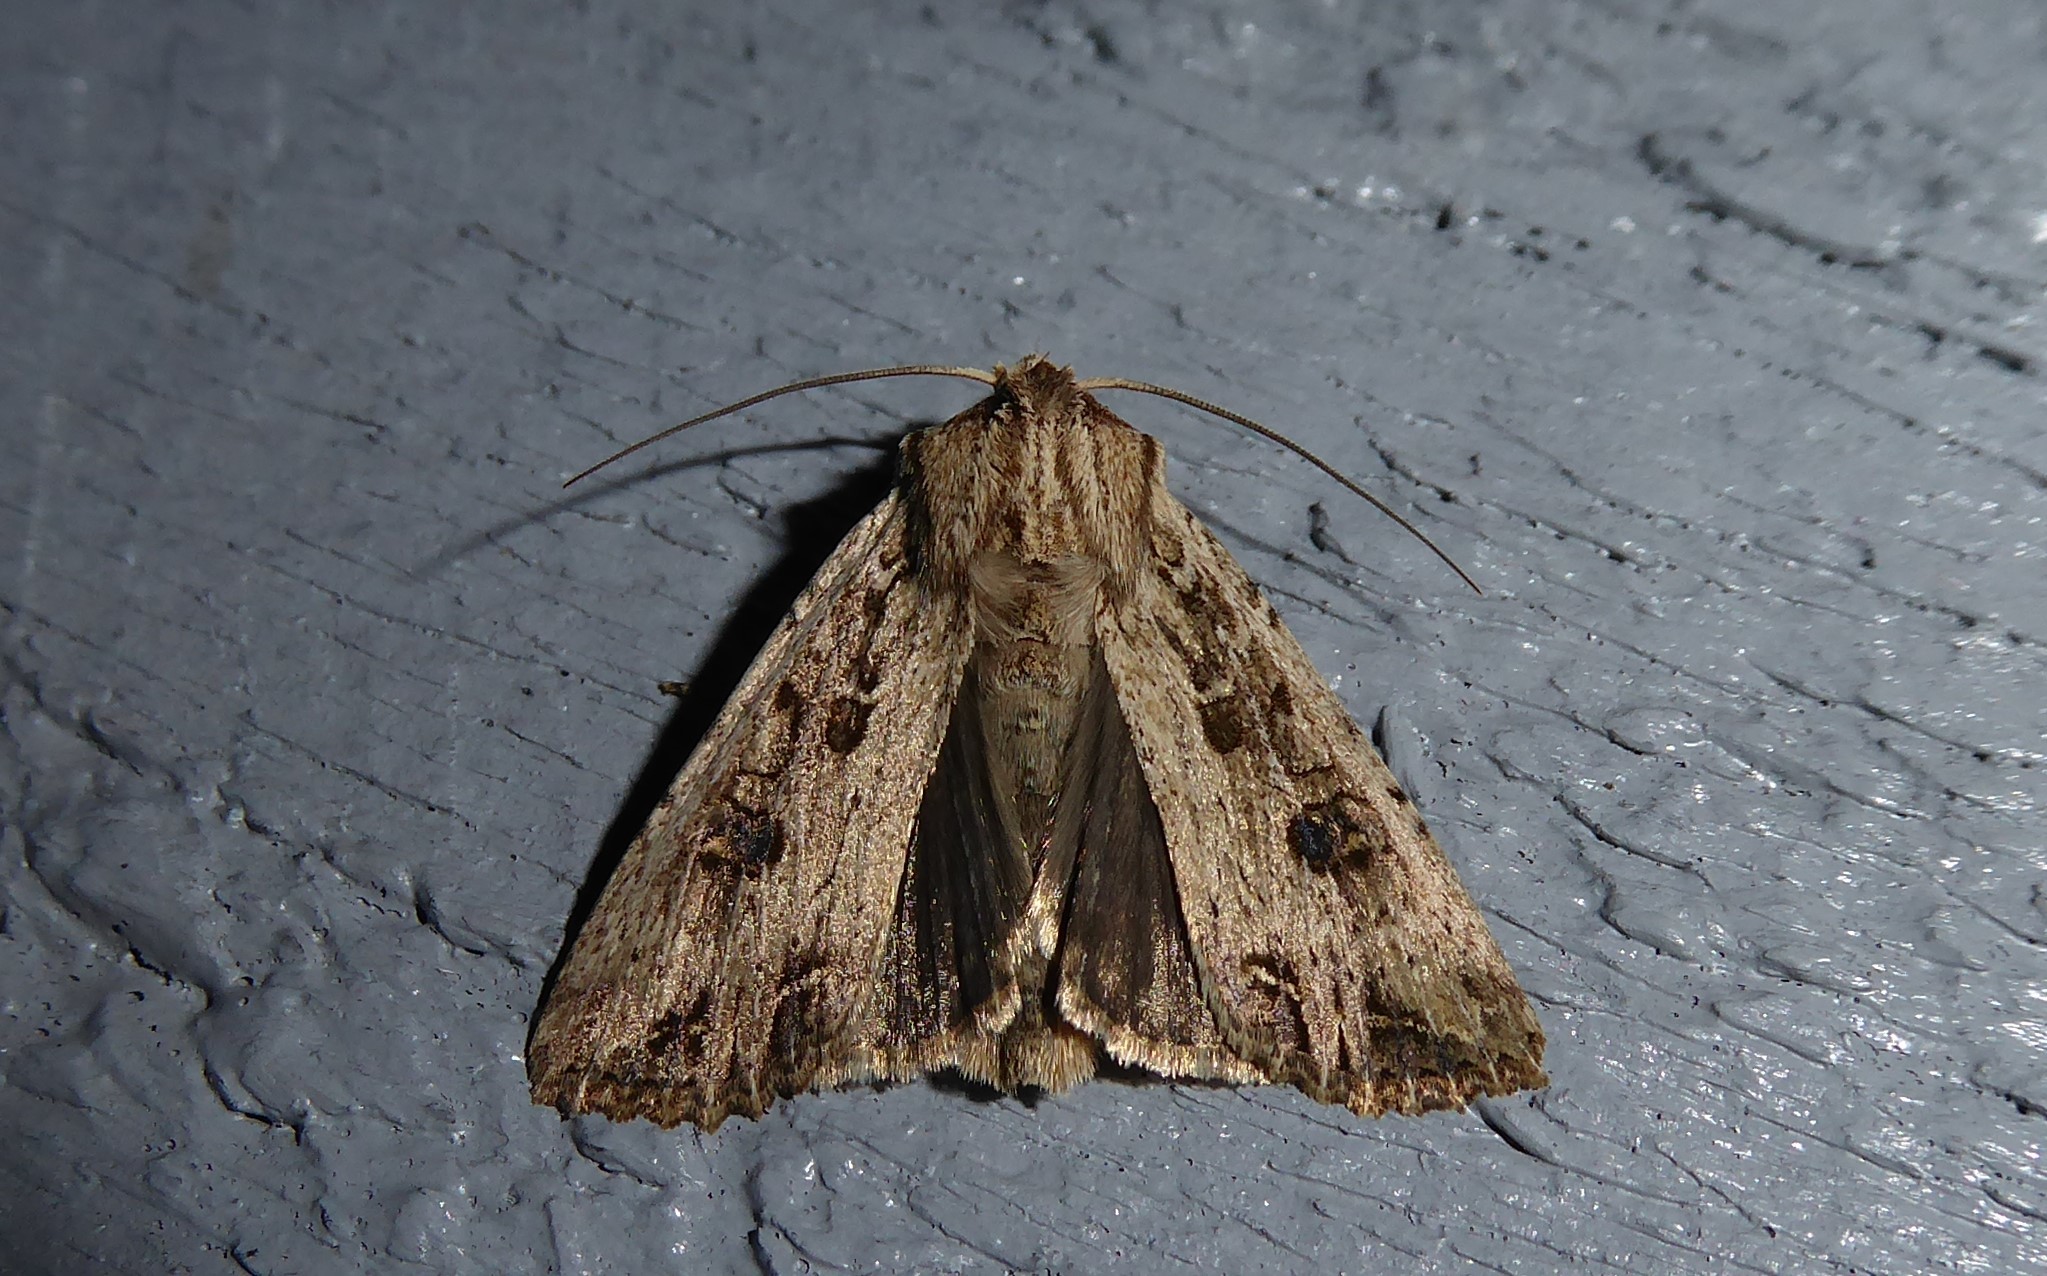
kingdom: Animalia
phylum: Arthropoda
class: Insecta
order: Lepidoptera
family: Noctuidae
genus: Ichneutica
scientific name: Ichneutica lignana
